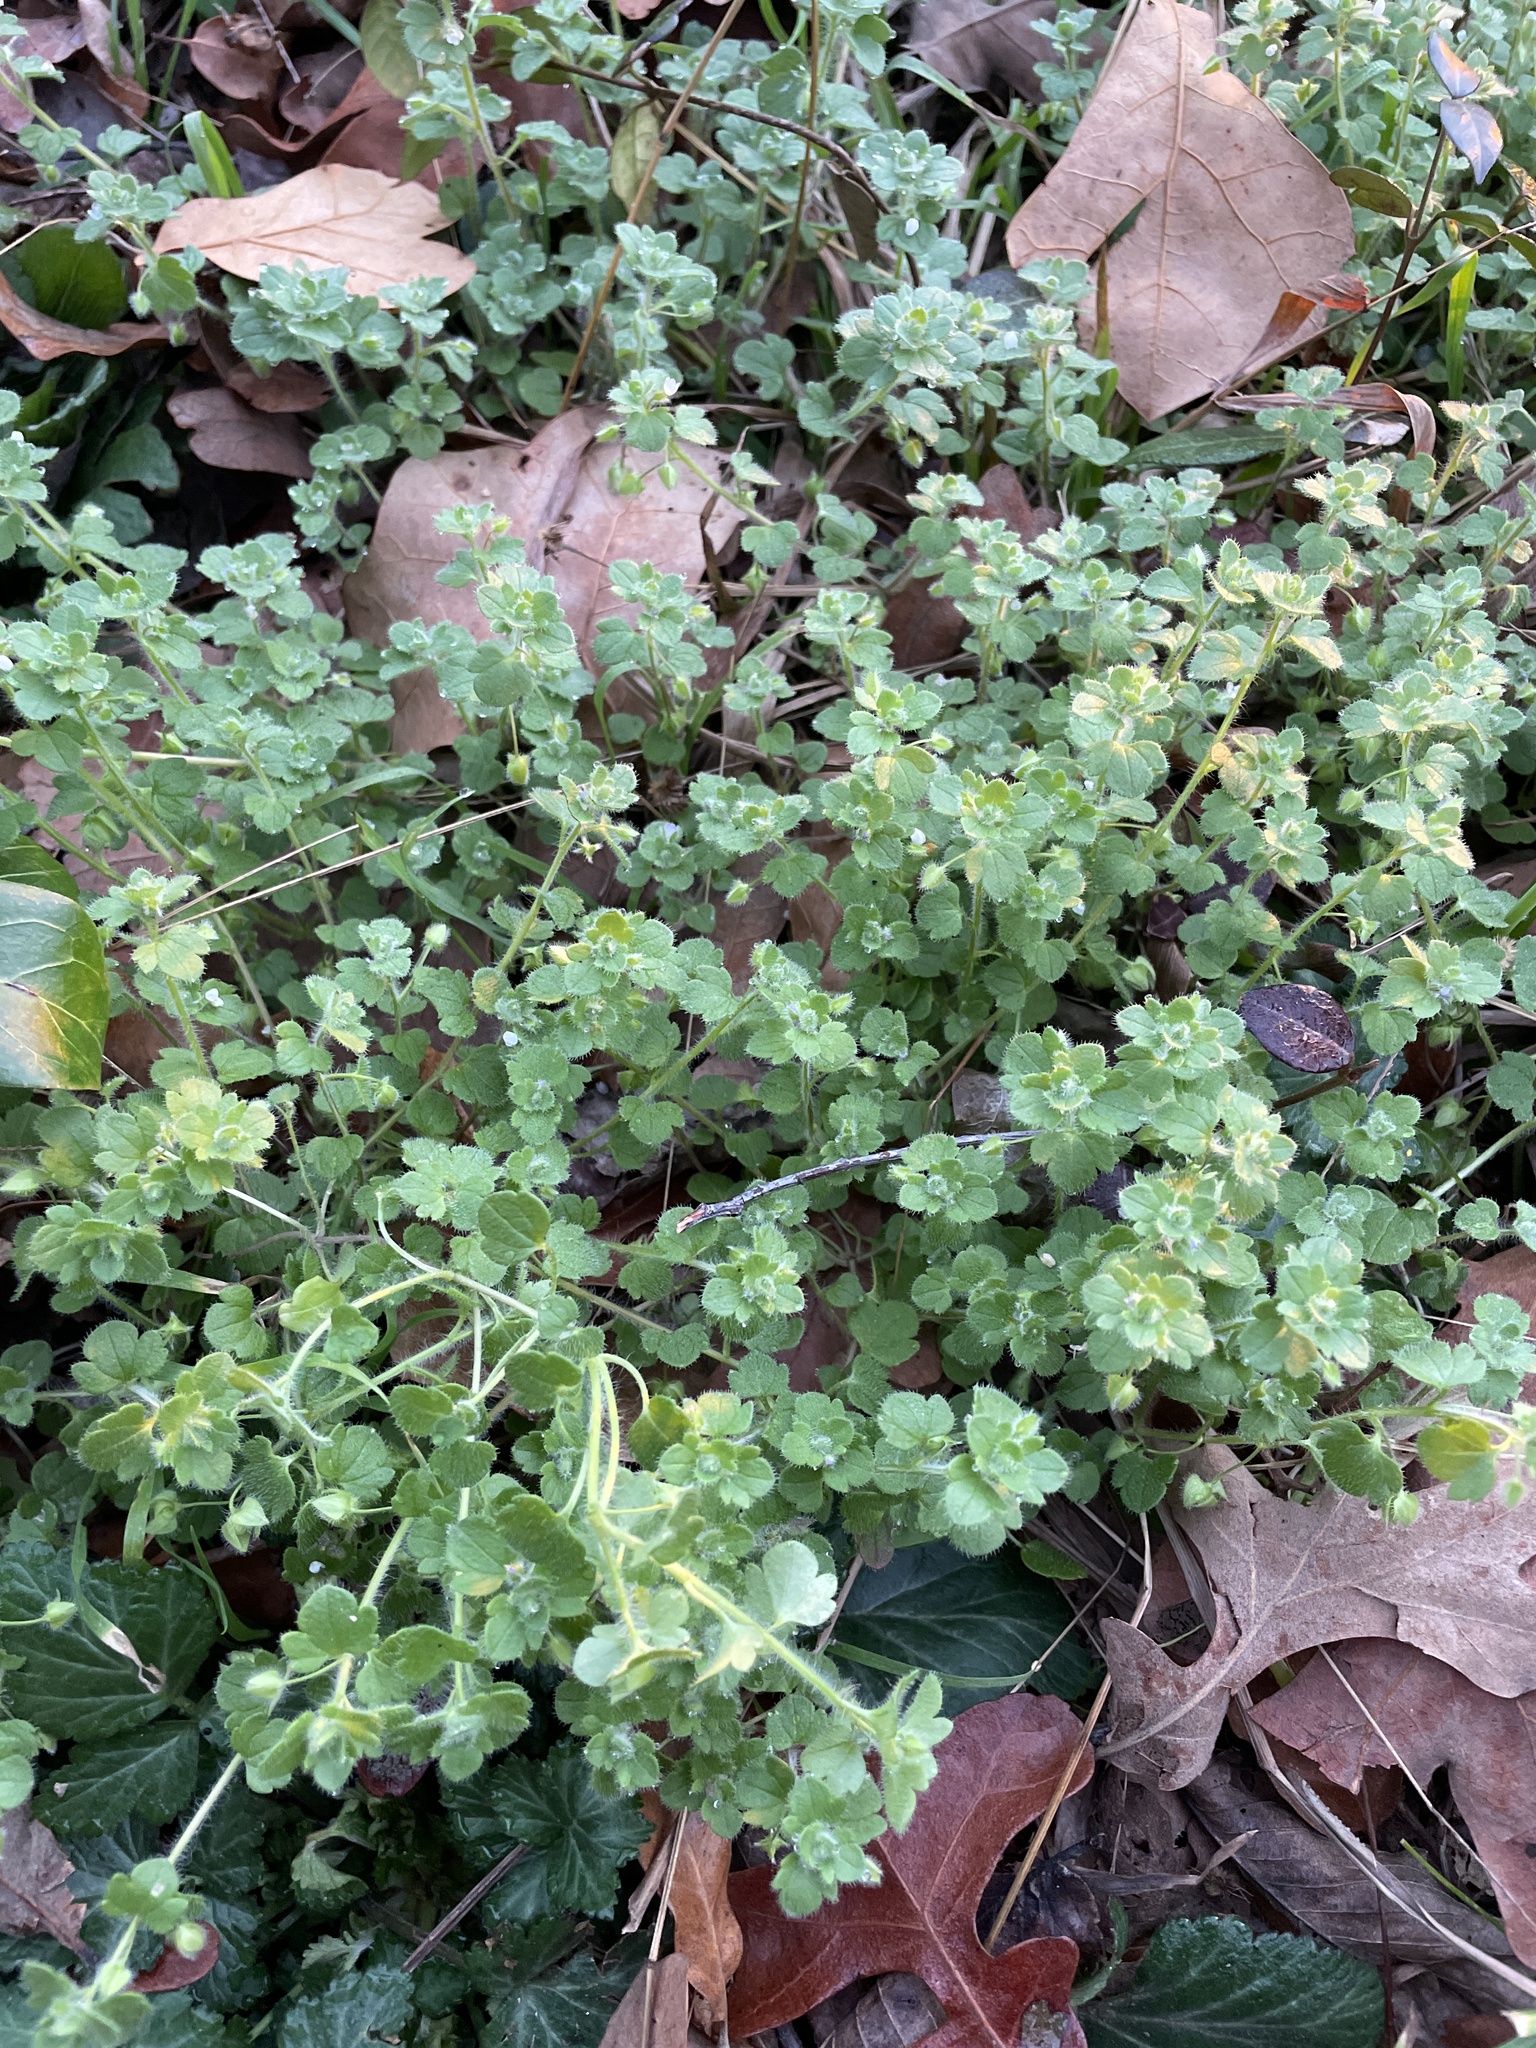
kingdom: Plantae
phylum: Tracheophyta
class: Magnoliopsida
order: Lamiales
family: Plantaginaceae
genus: Veronica
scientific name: Veronica hederifolia
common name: Ivy-leaved speedwell
